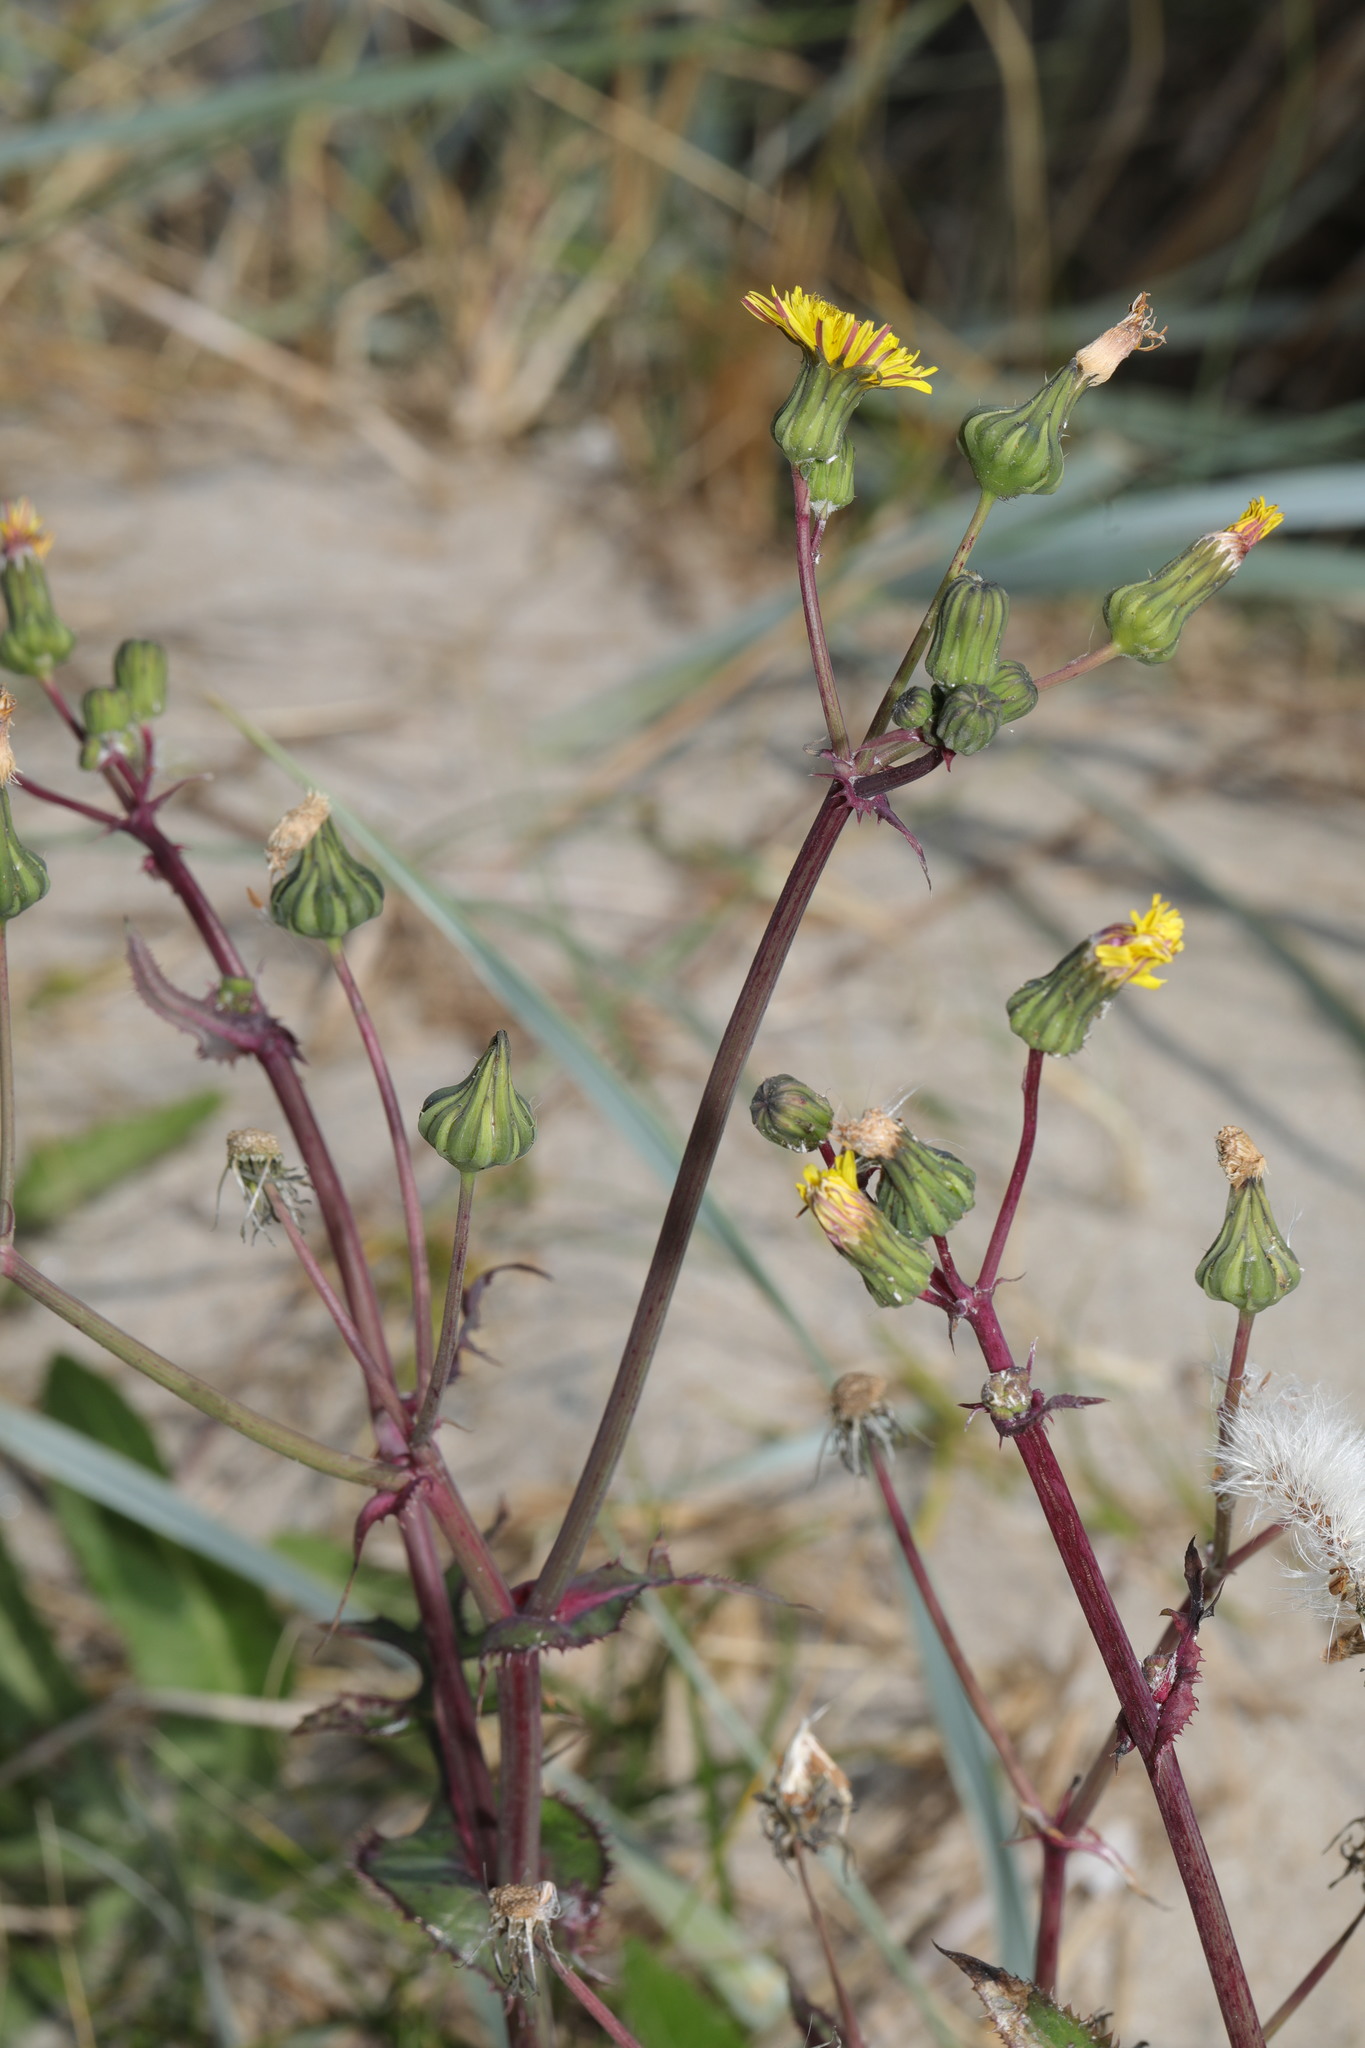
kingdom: Plantae
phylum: Tracheophyta
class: Magnoliopsida
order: Asterales
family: Asteraceae
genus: Sonchus
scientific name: Sonchus oleraceus
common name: Common sowthistle
